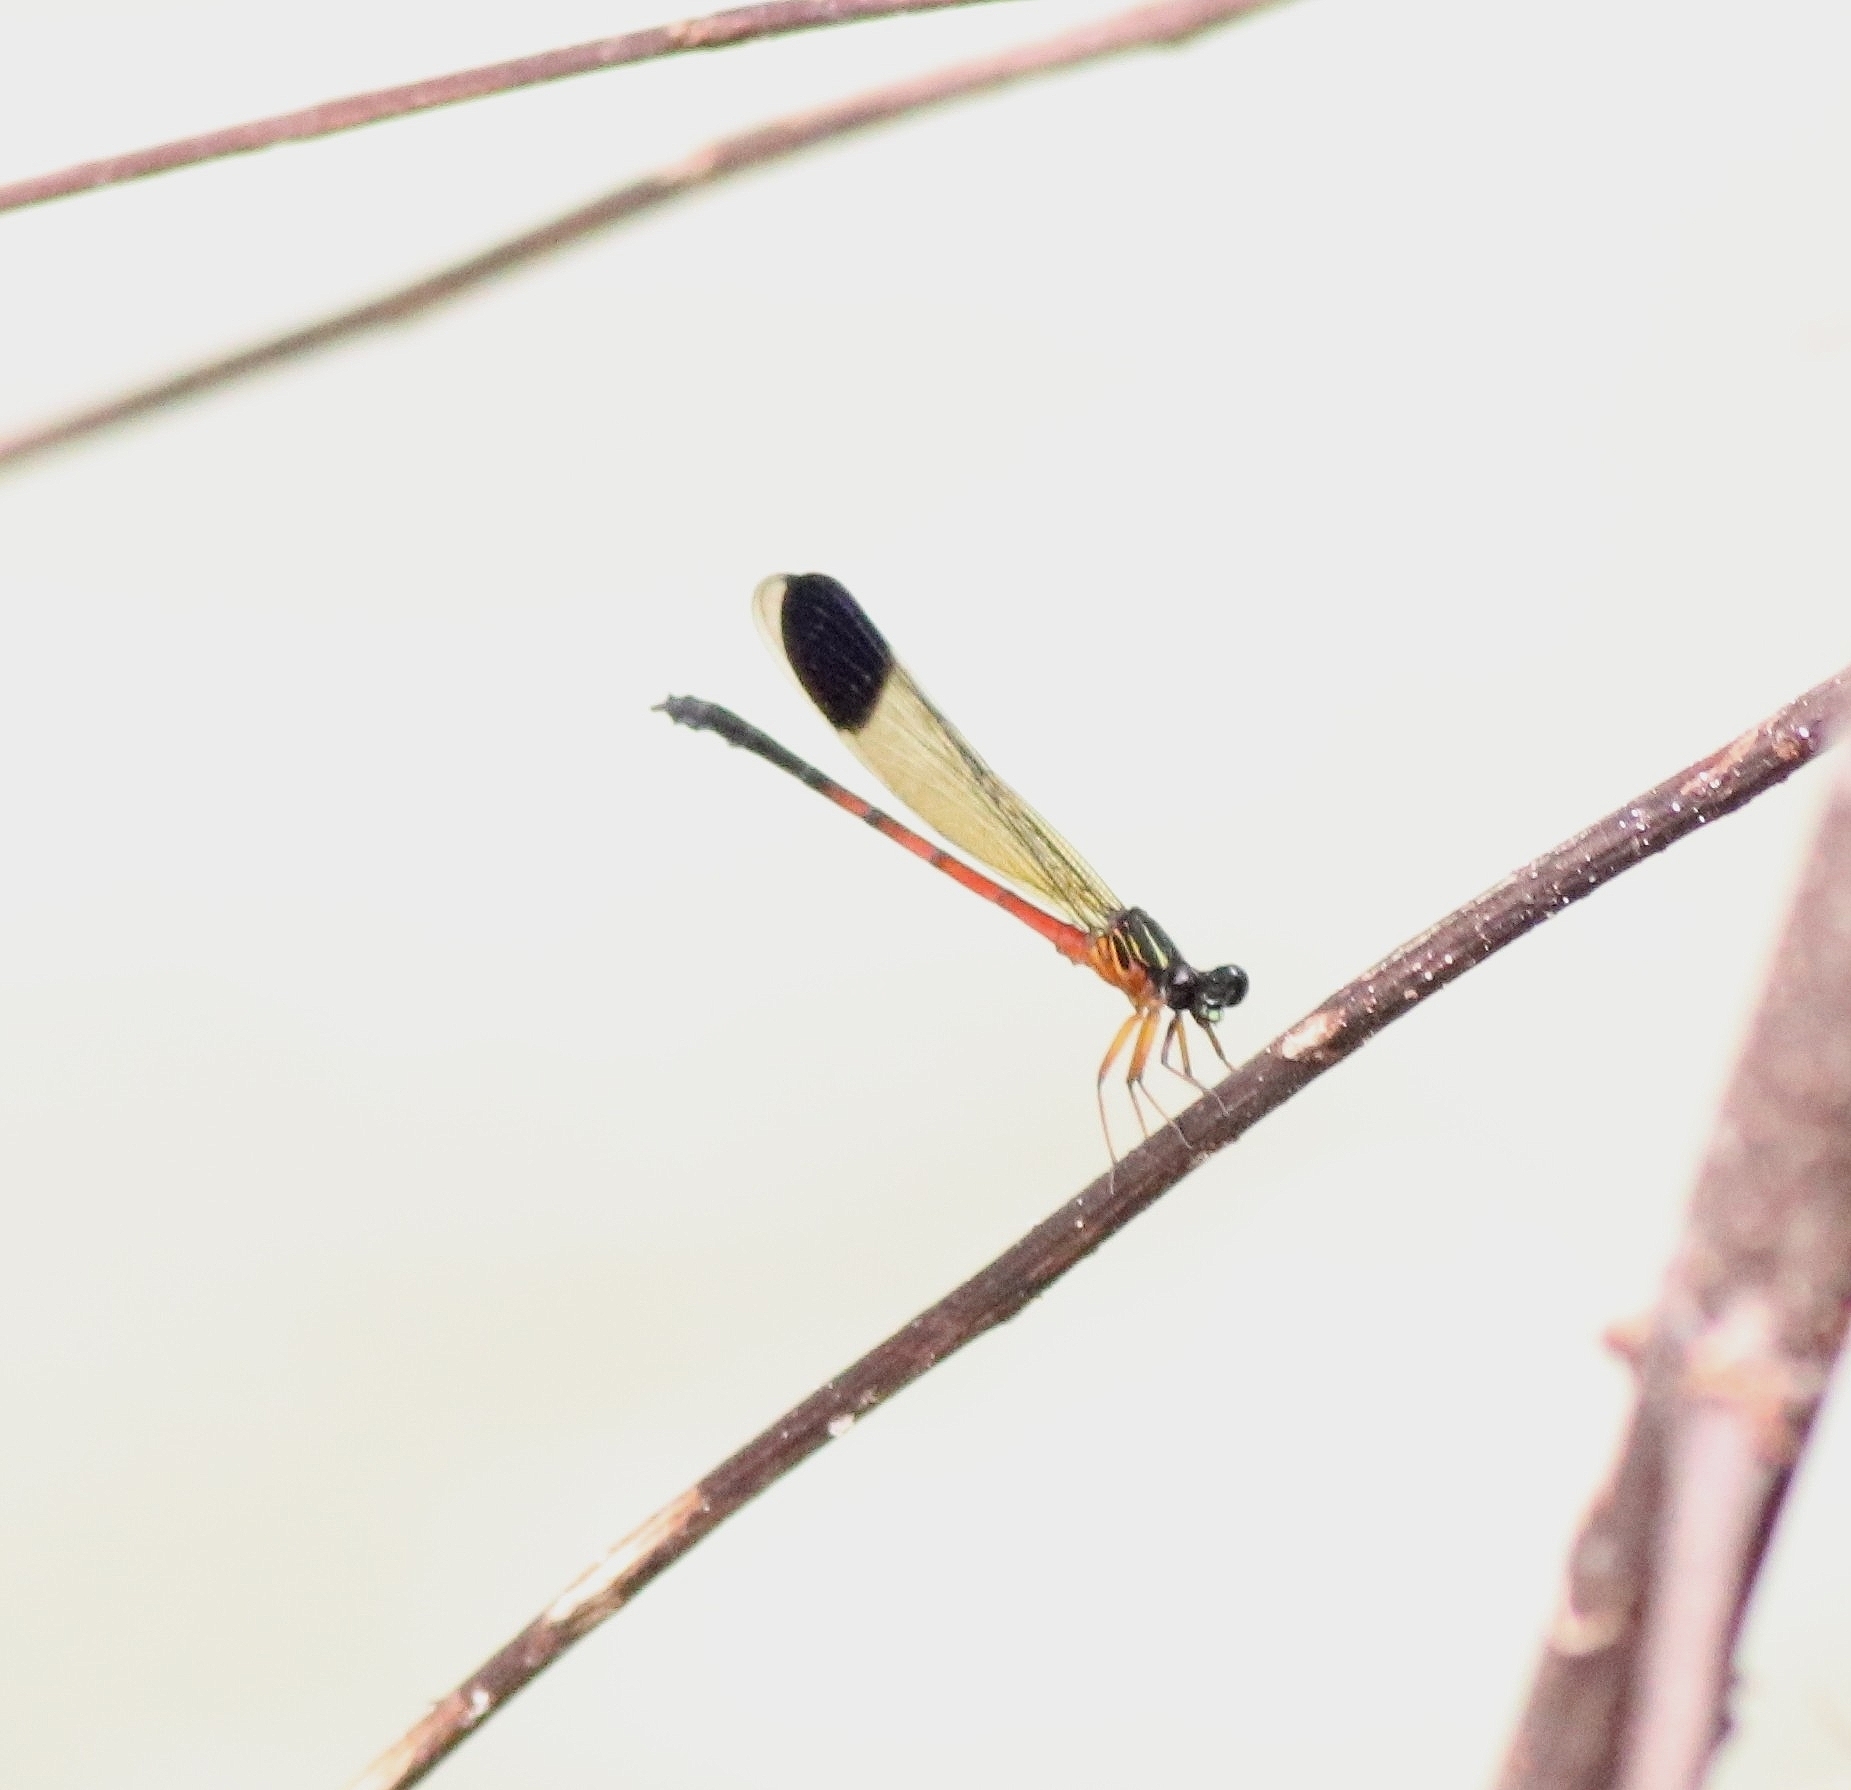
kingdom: Animalia
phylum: Arthropoda
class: Insecta
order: Odonata
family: Euphaeidae
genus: Euphaea
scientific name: Euphaea fraseri
